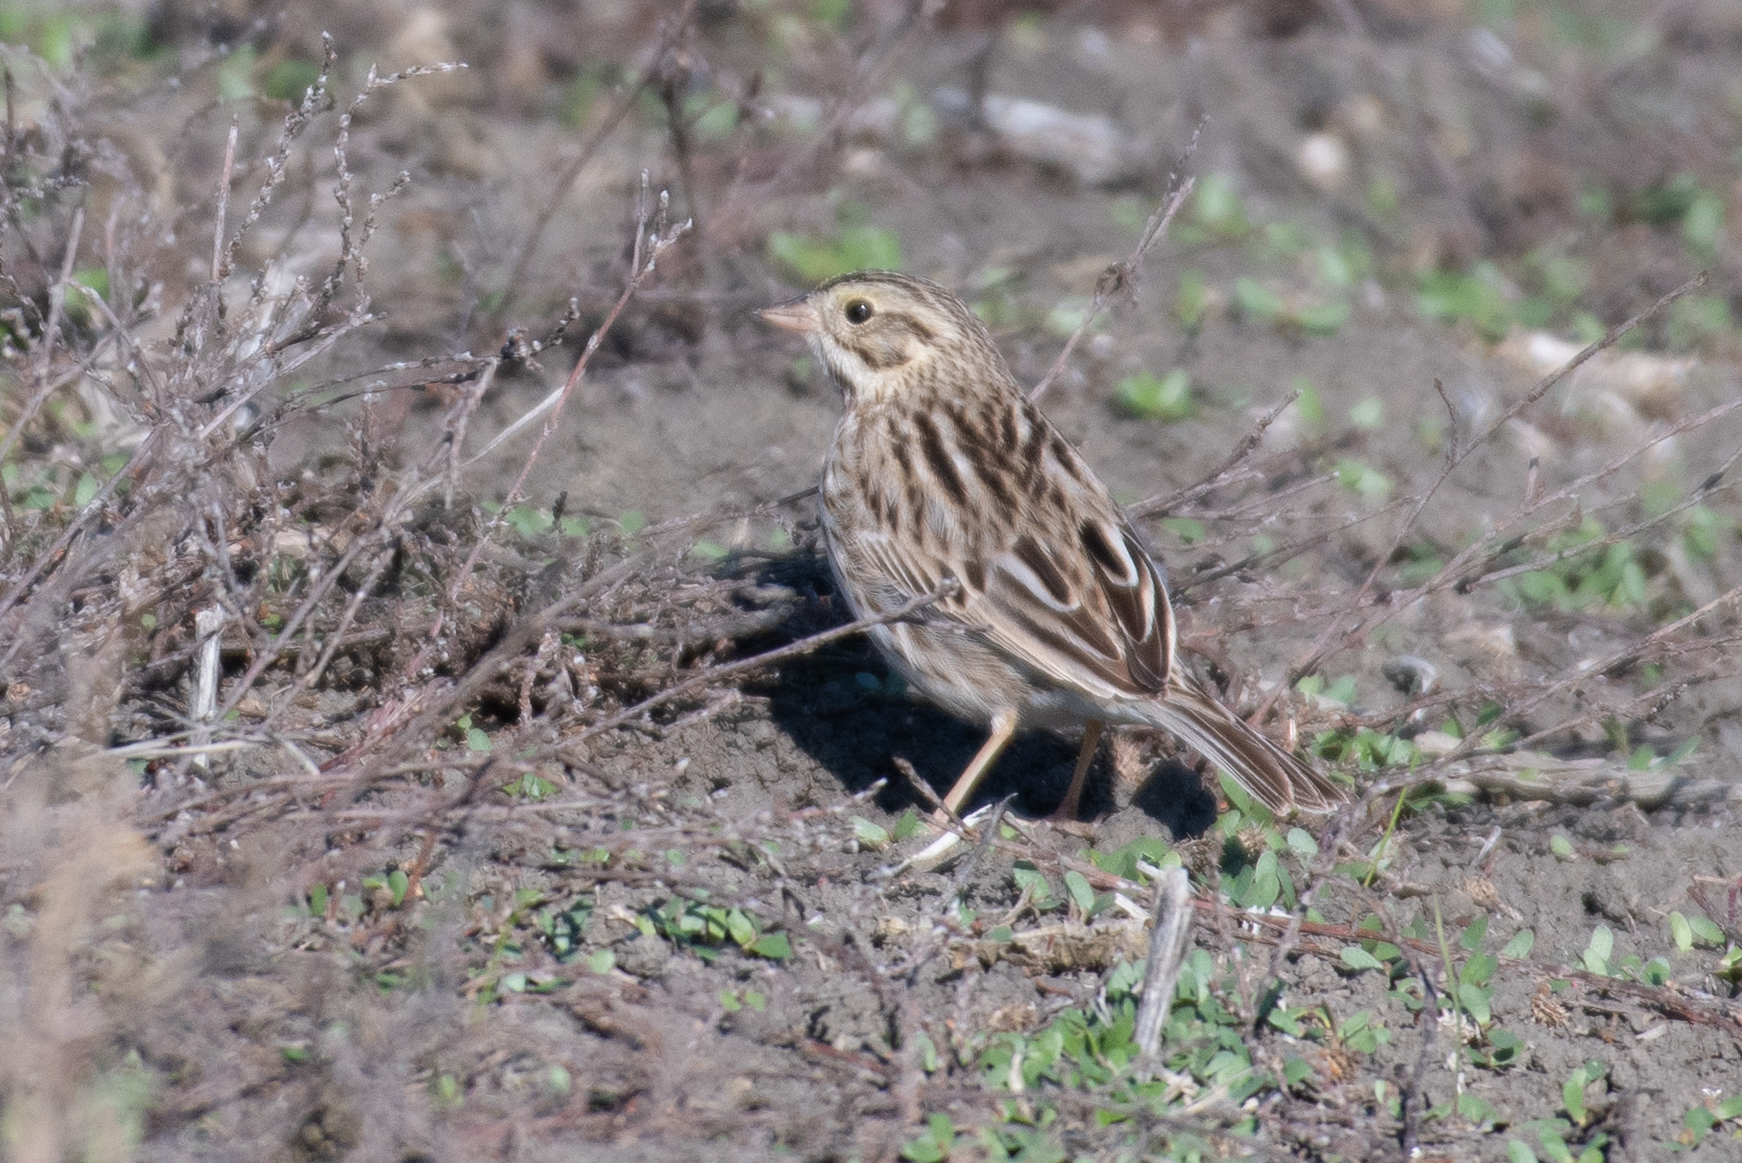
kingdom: Animalia
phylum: Chordata
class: Aves
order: Passeriformes
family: Passerellidae
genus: Passerculus
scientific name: Passerculus sandwichensis
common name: Savannah sparrow
